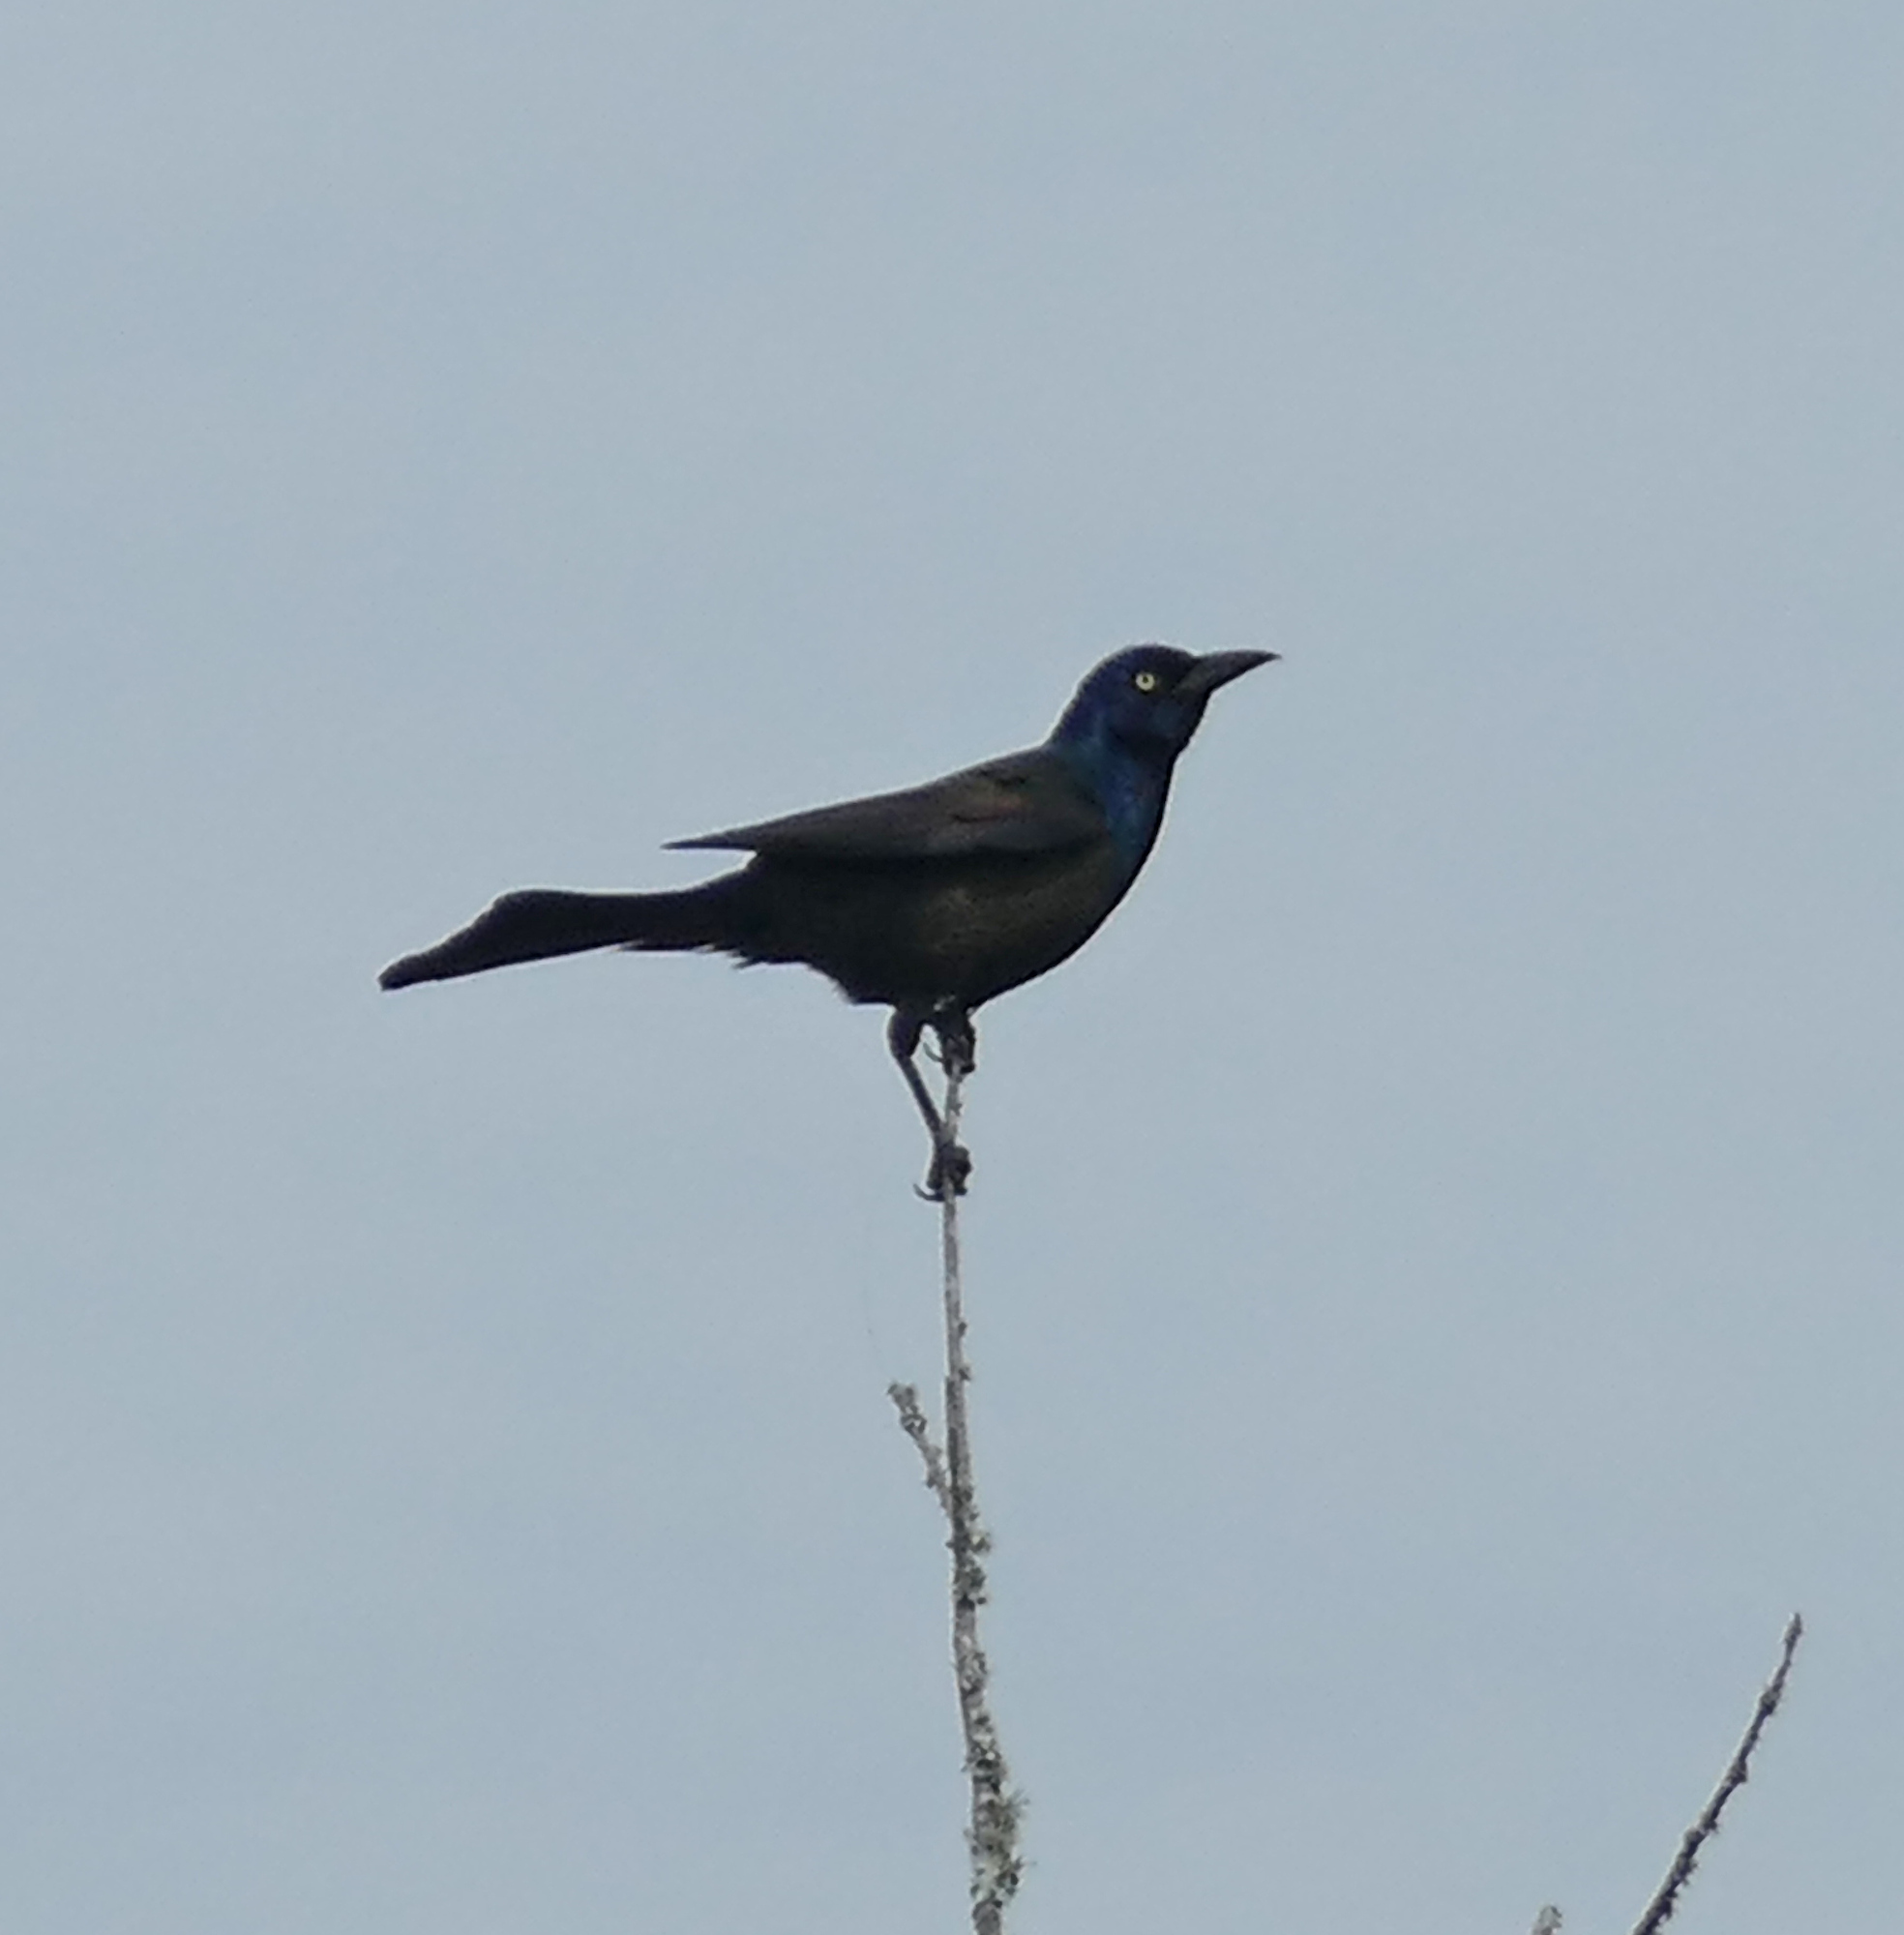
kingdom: Animalia
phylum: Chordata
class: Aves
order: Passeriformes
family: Icteridae
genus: Quiscalus
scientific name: Quiscalus quiscula
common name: Common grackle
